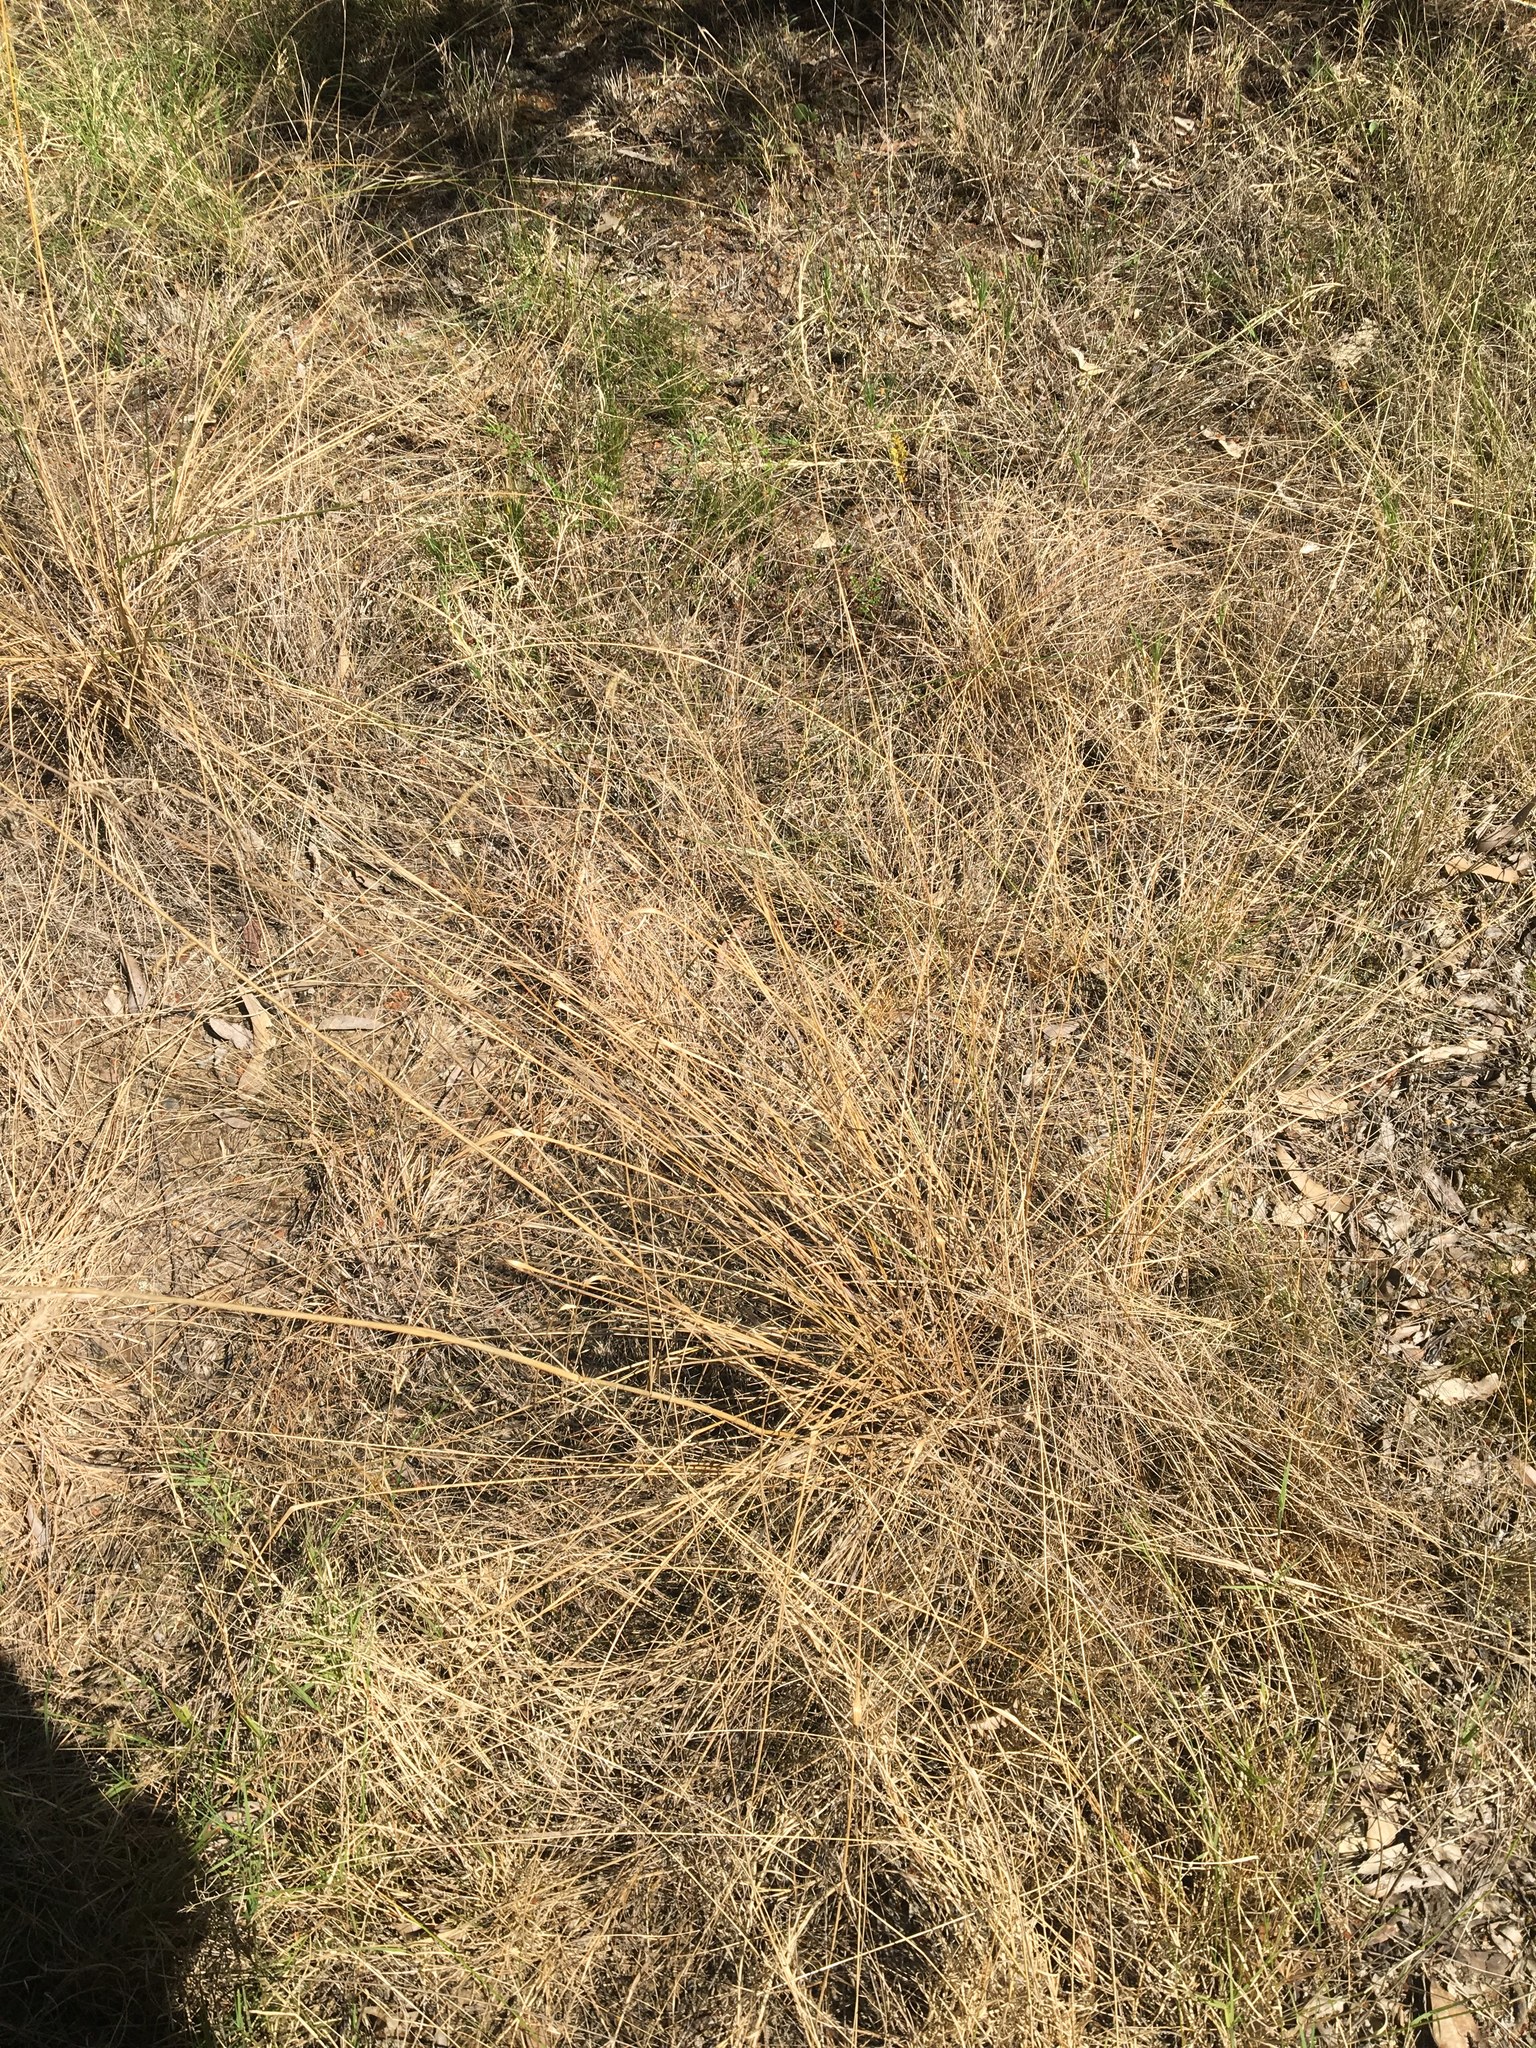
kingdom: Plantae
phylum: Tracheophyta
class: Liliopsida
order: Poales
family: Poaceae
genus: Eragrostis
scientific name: Eragrostis curvula
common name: African love-grass
